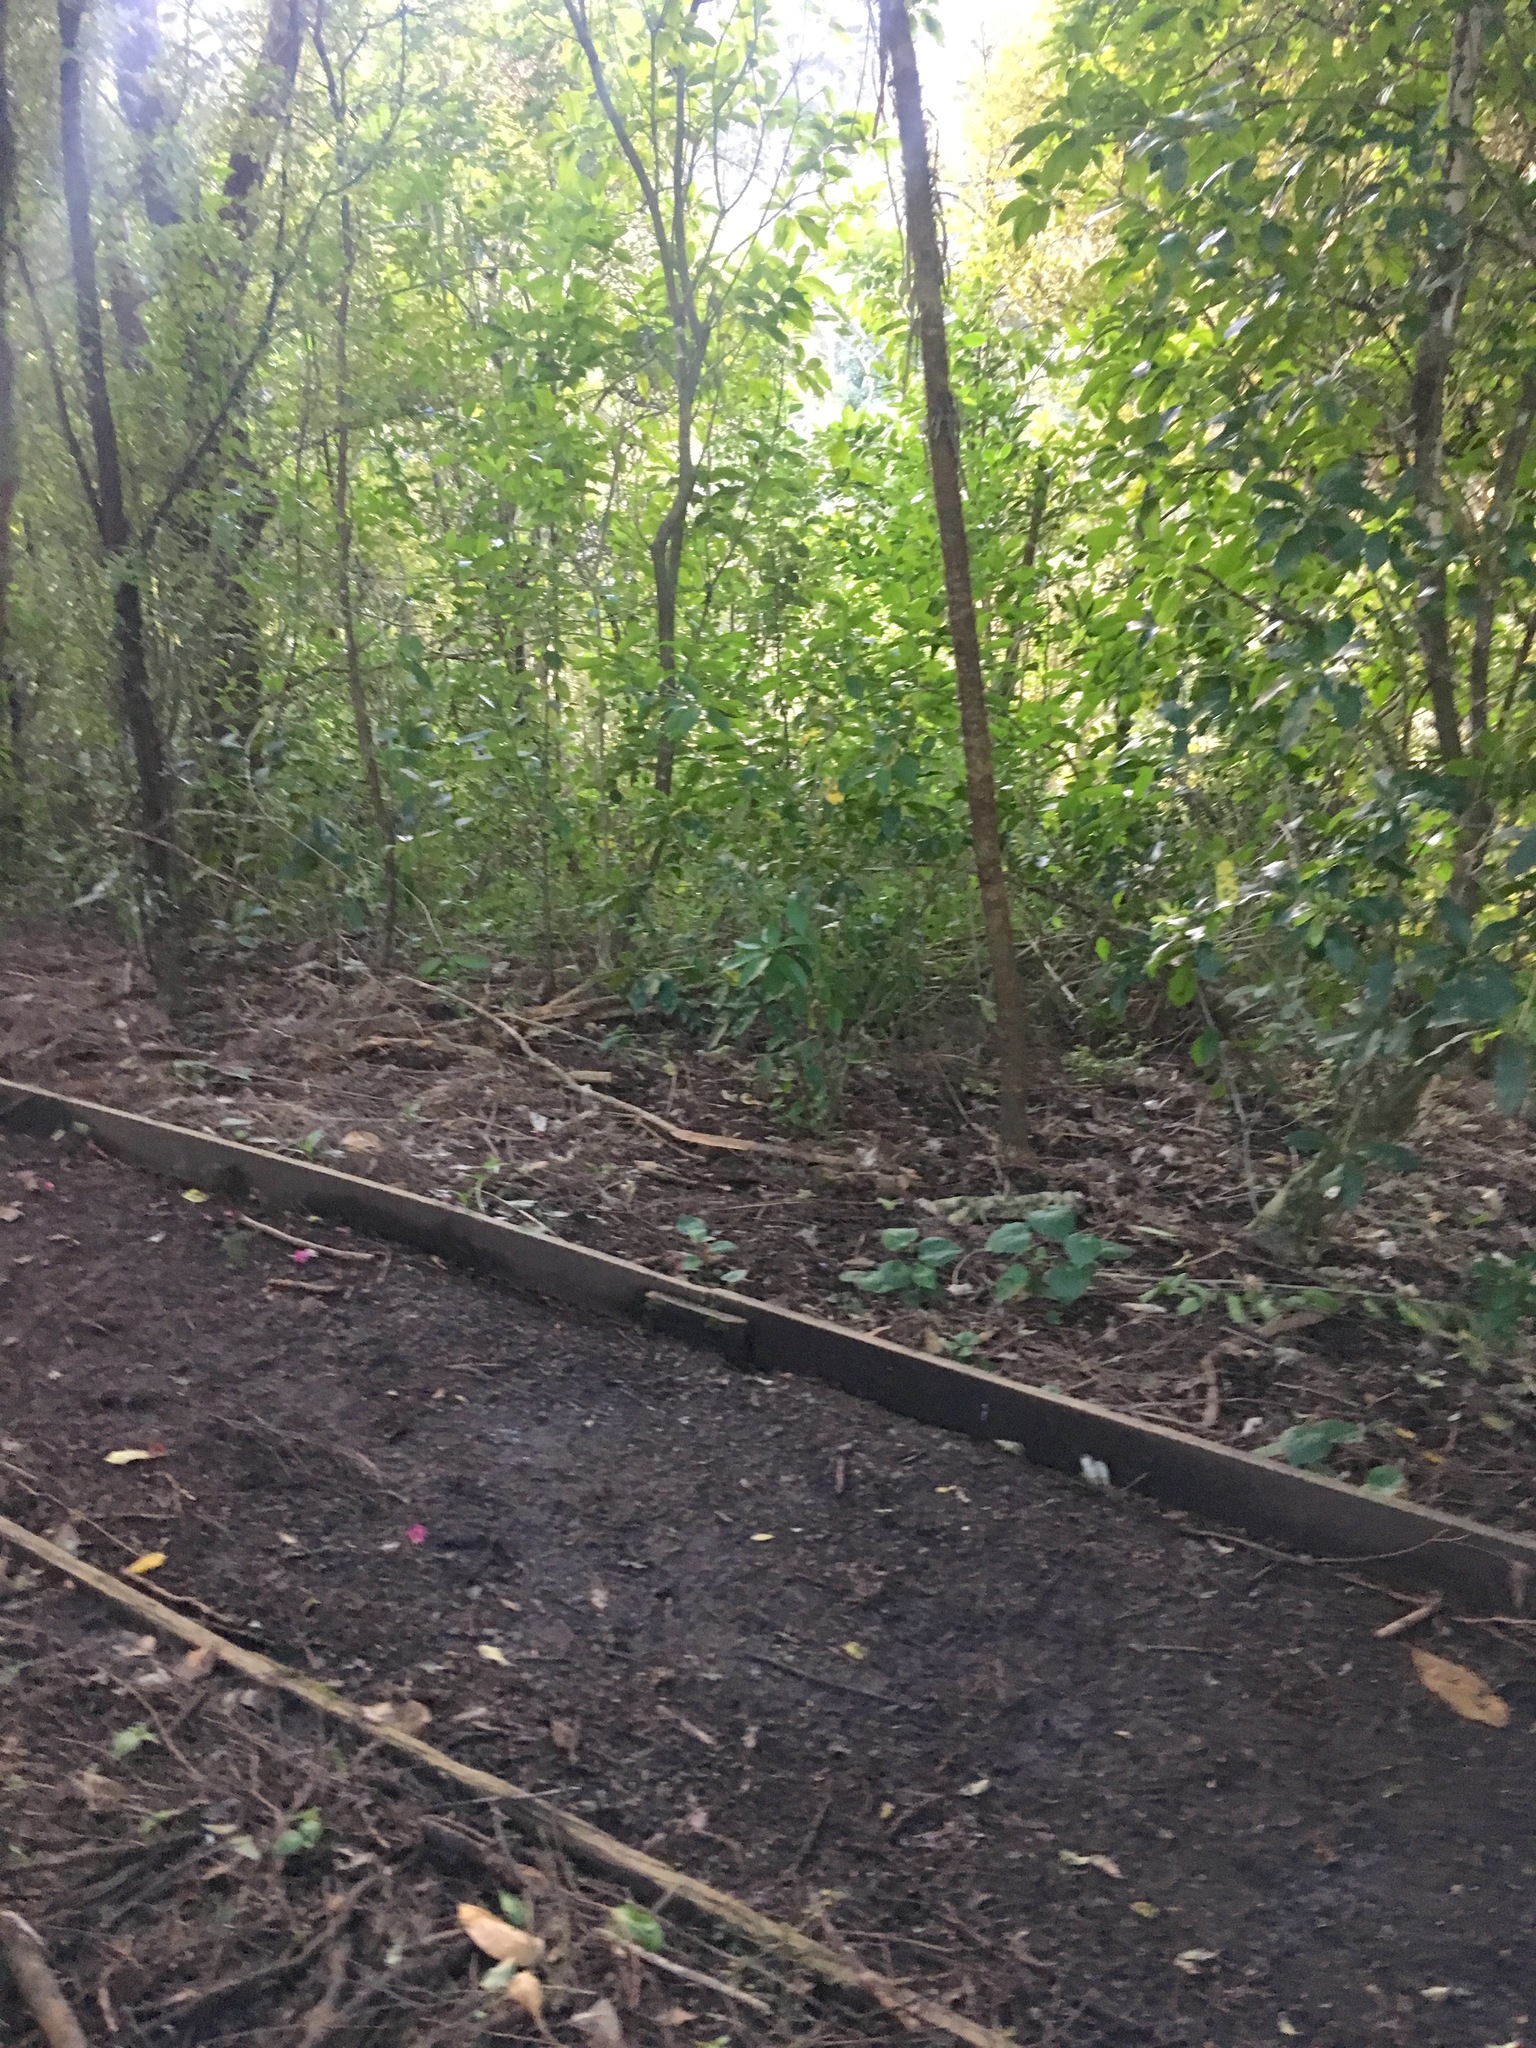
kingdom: Plantae
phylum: Tracheophyta
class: Magnoliopsida
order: Piperales
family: Piperaceae
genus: Macropiper
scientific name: Macropiper excelsum
